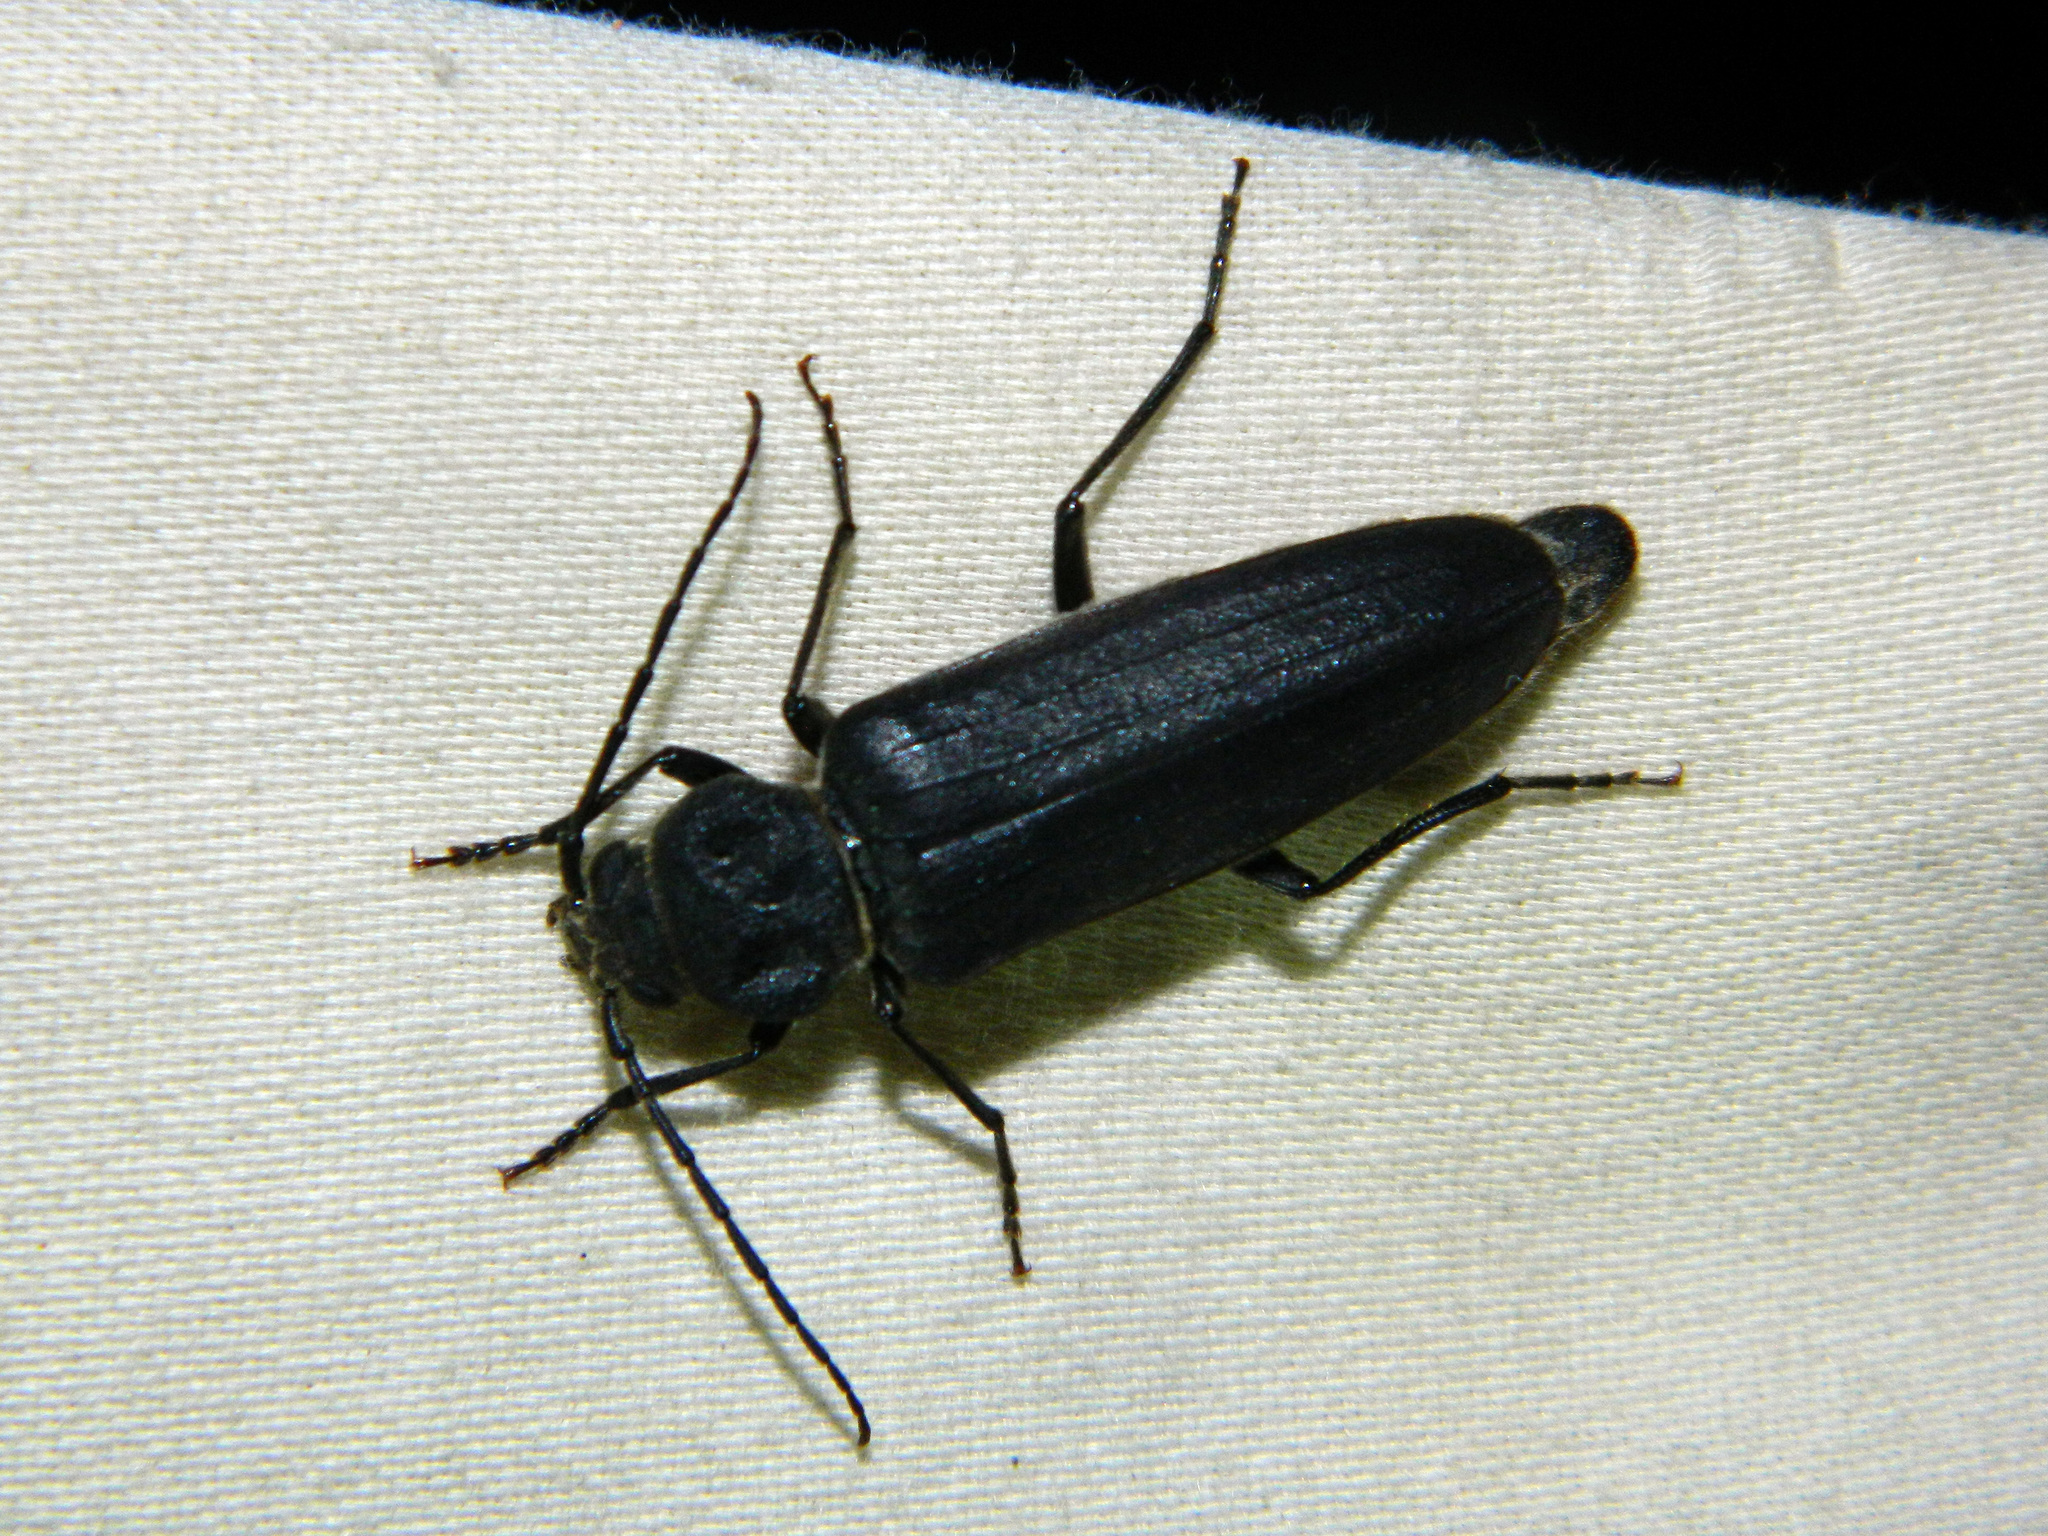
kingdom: Animalia
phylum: Arthropoda
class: Insecta
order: Coleoptera
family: Cerambycidae
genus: Arhopalus
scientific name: Arhopalus foveicollis
